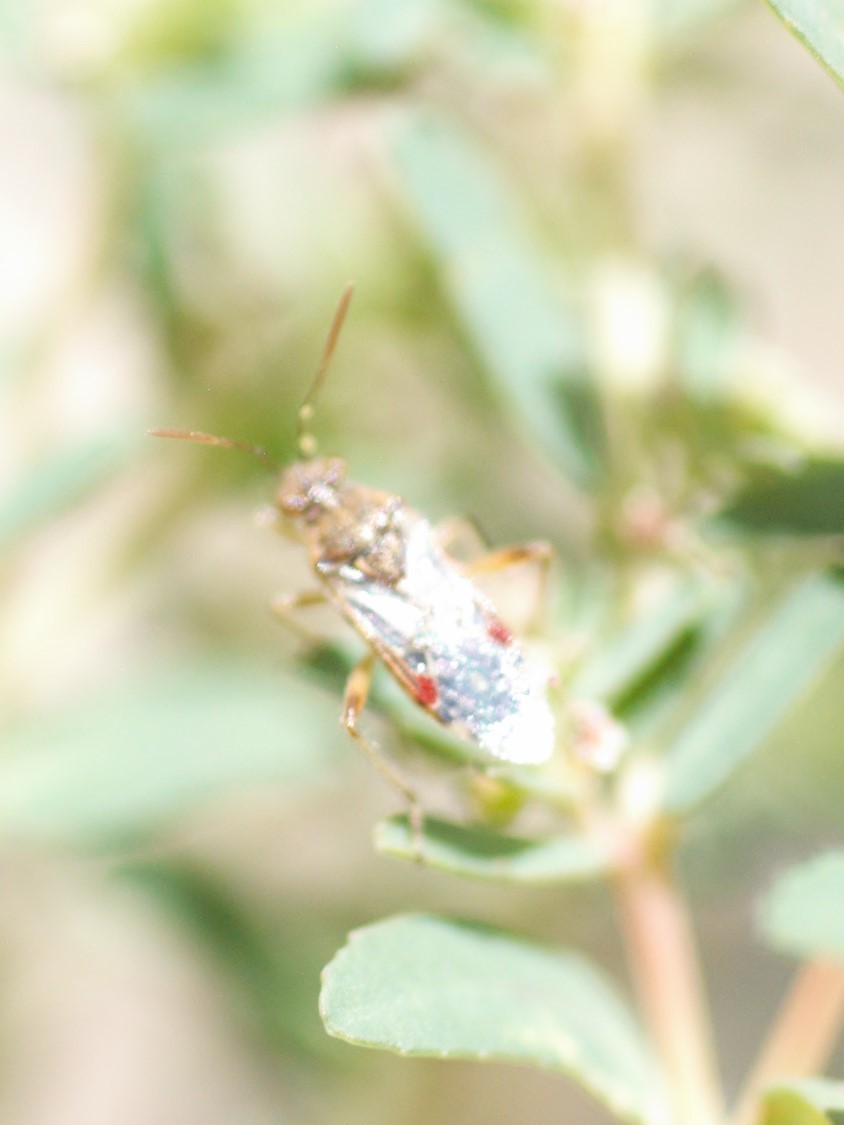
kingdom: Animalia
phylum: Arthropoda
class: Insecta
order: Hemiptera
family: Rhopalidae
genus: Liorhyssus
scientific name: Liorhyssus hyalinus
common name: Scentless plant bug
